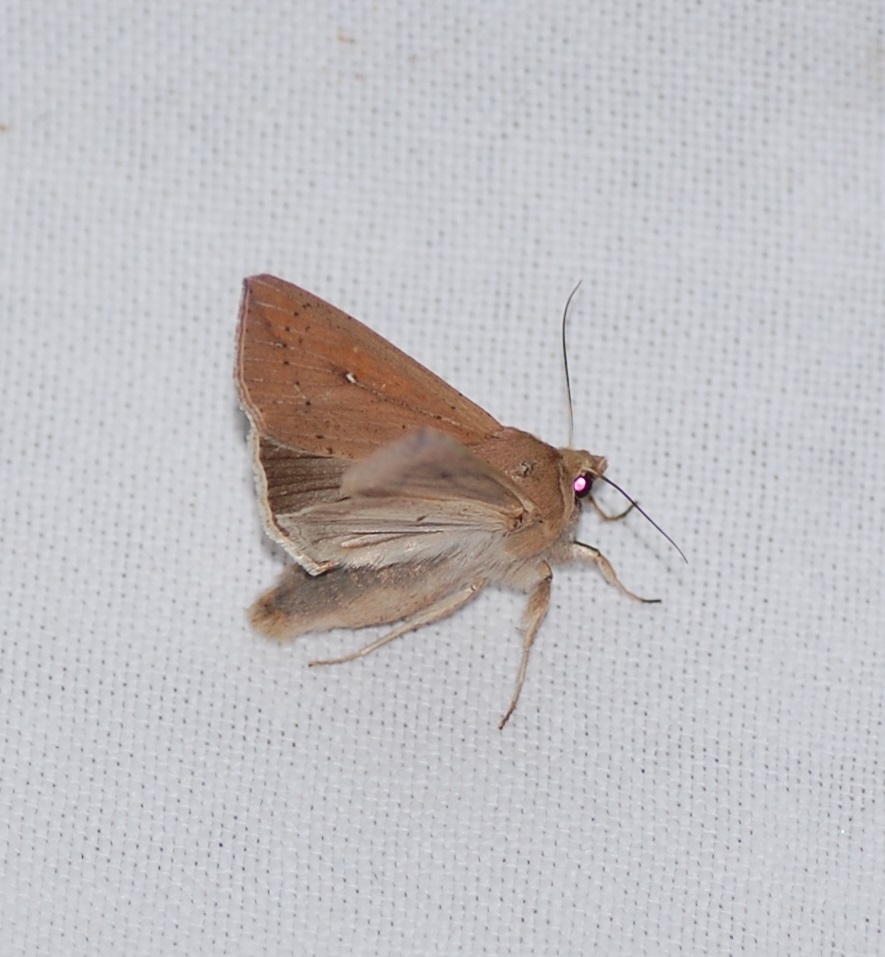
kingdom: Animalia
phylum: Arthropoda
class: Insecta
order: Lepidoptera
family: Noctuidae
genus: Mythimna
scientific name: Mythimna unipuncta
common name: White-speck
